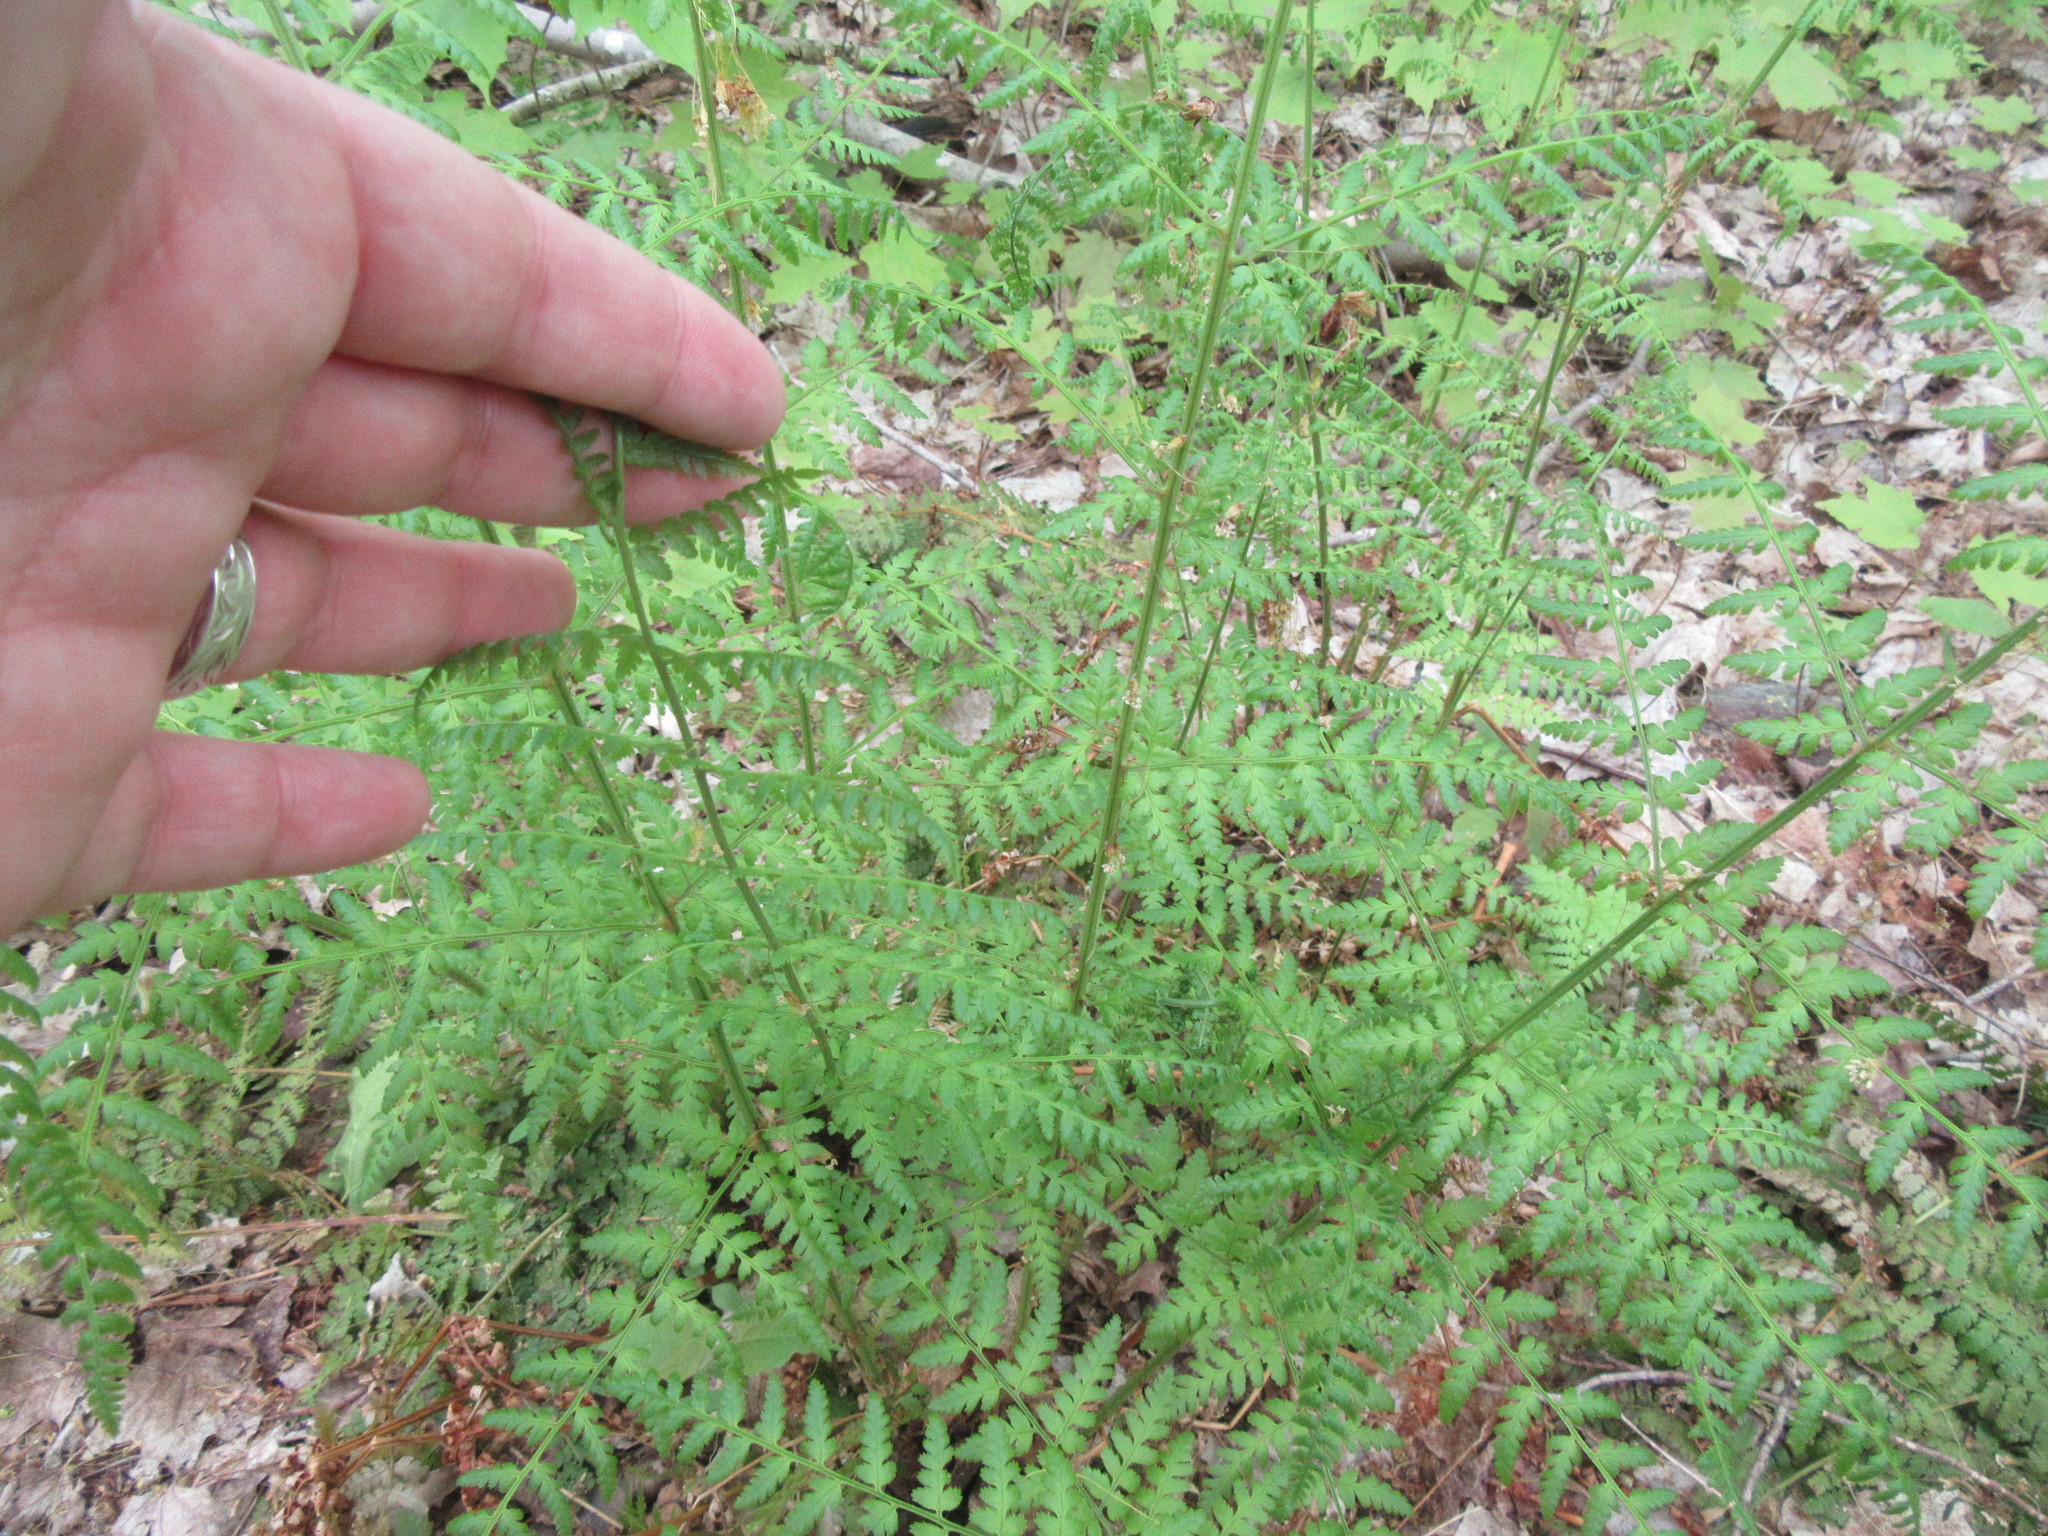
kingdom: Plantae
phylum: Tracheophyta
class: Polypodiopsida
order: Polypodiales
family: Dryopteridaceae
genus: Dryopteris
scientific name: Dryopteris intermedia
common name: Evergreen wood fern
